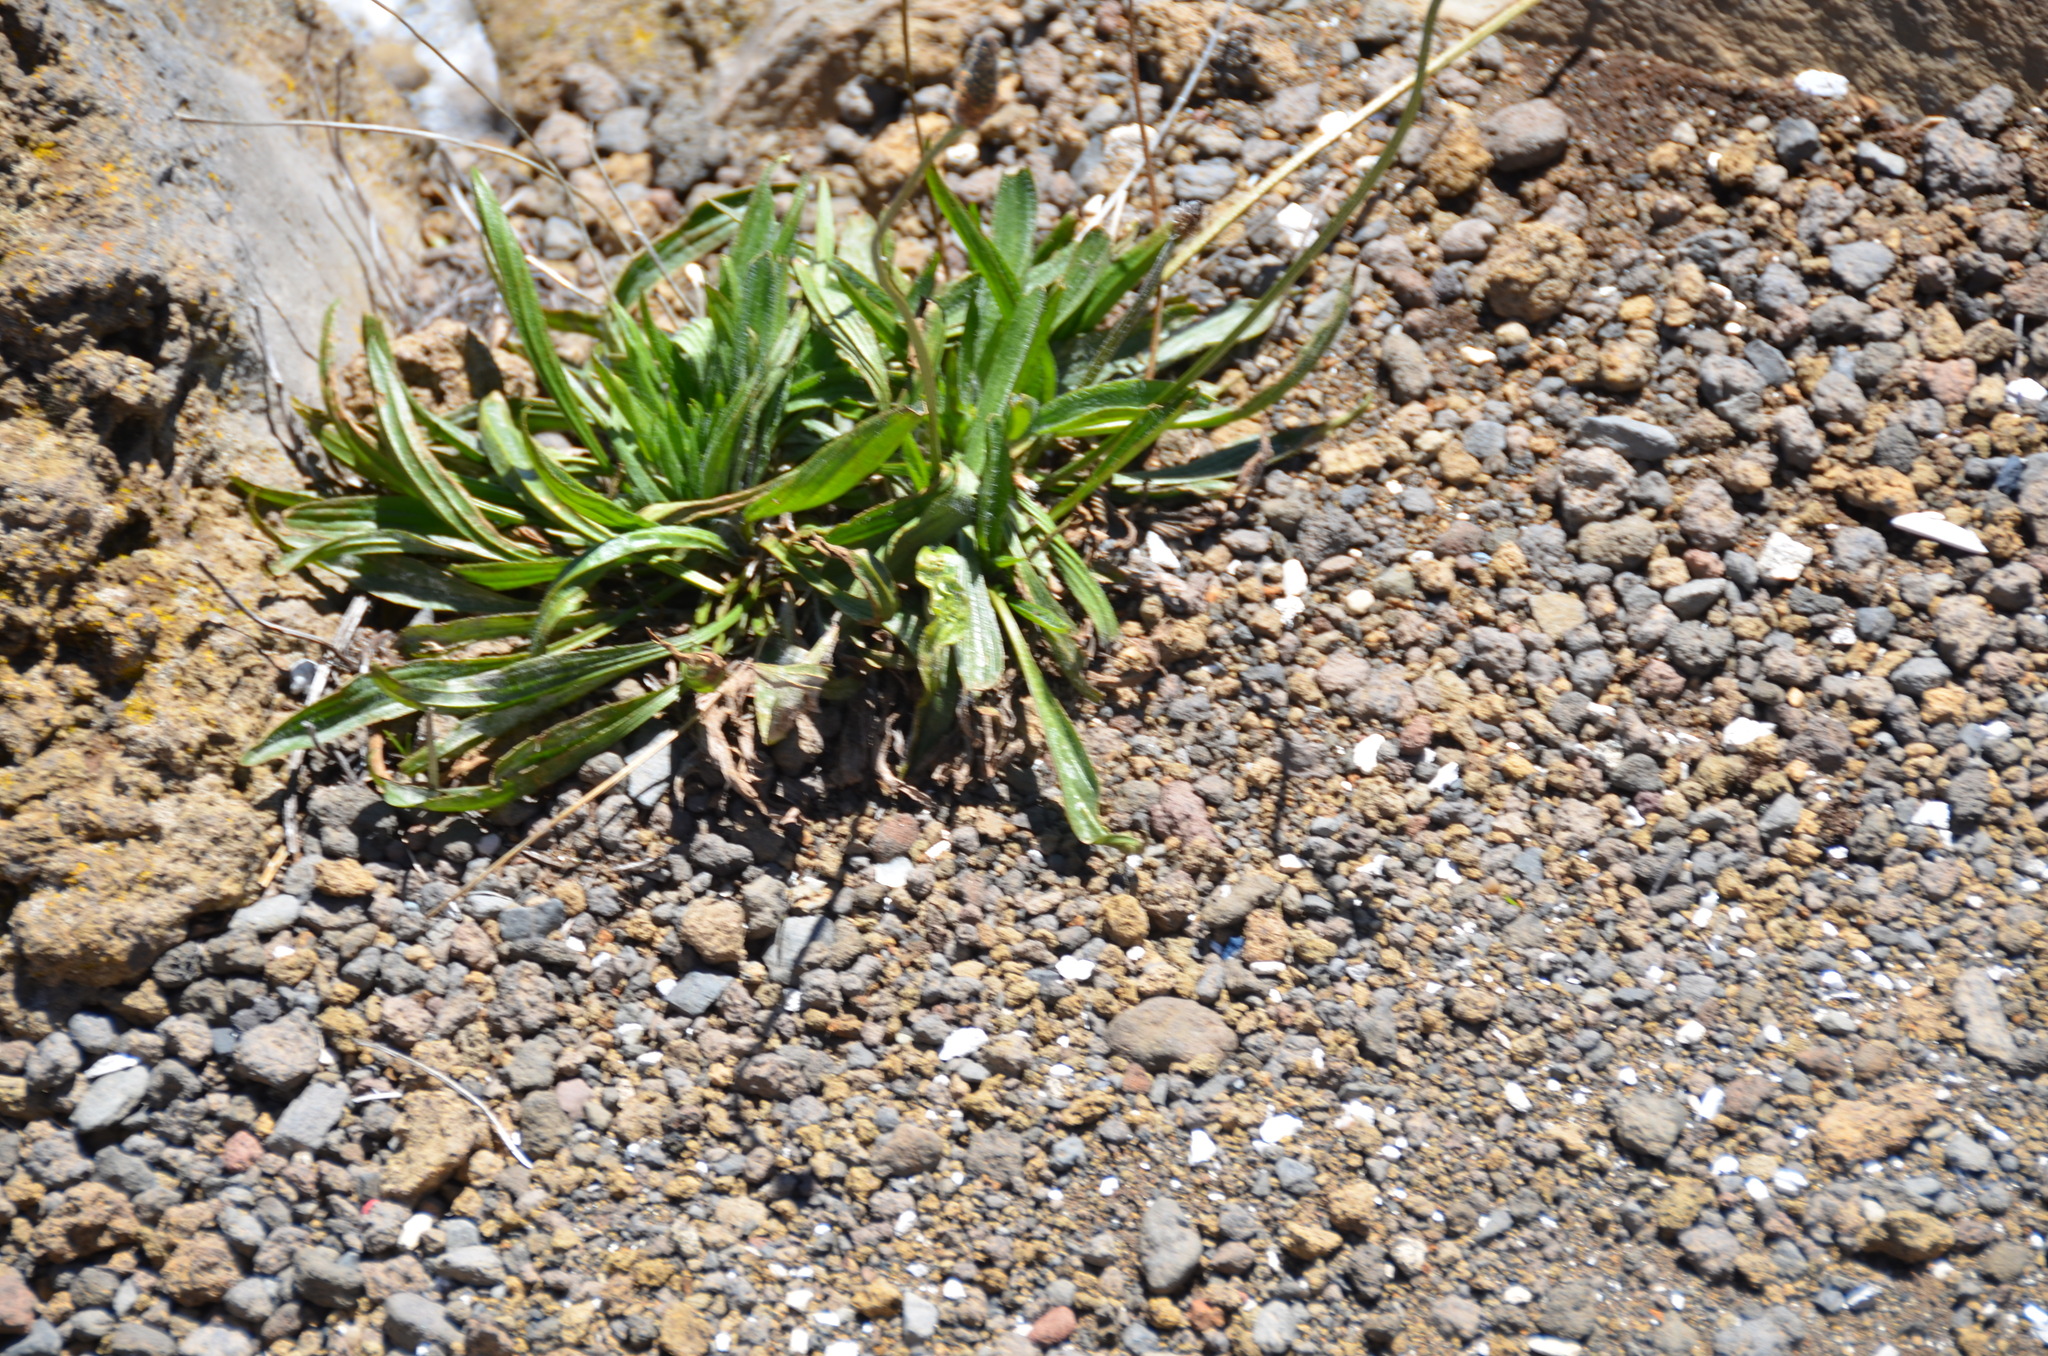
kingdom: Plantae
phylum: Tracheophyta
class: Magnoliopsida
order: Lamiales
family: Plantaginaceae
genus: Plantago
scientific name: Plantago lanceolata
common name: Ribwort plantain
